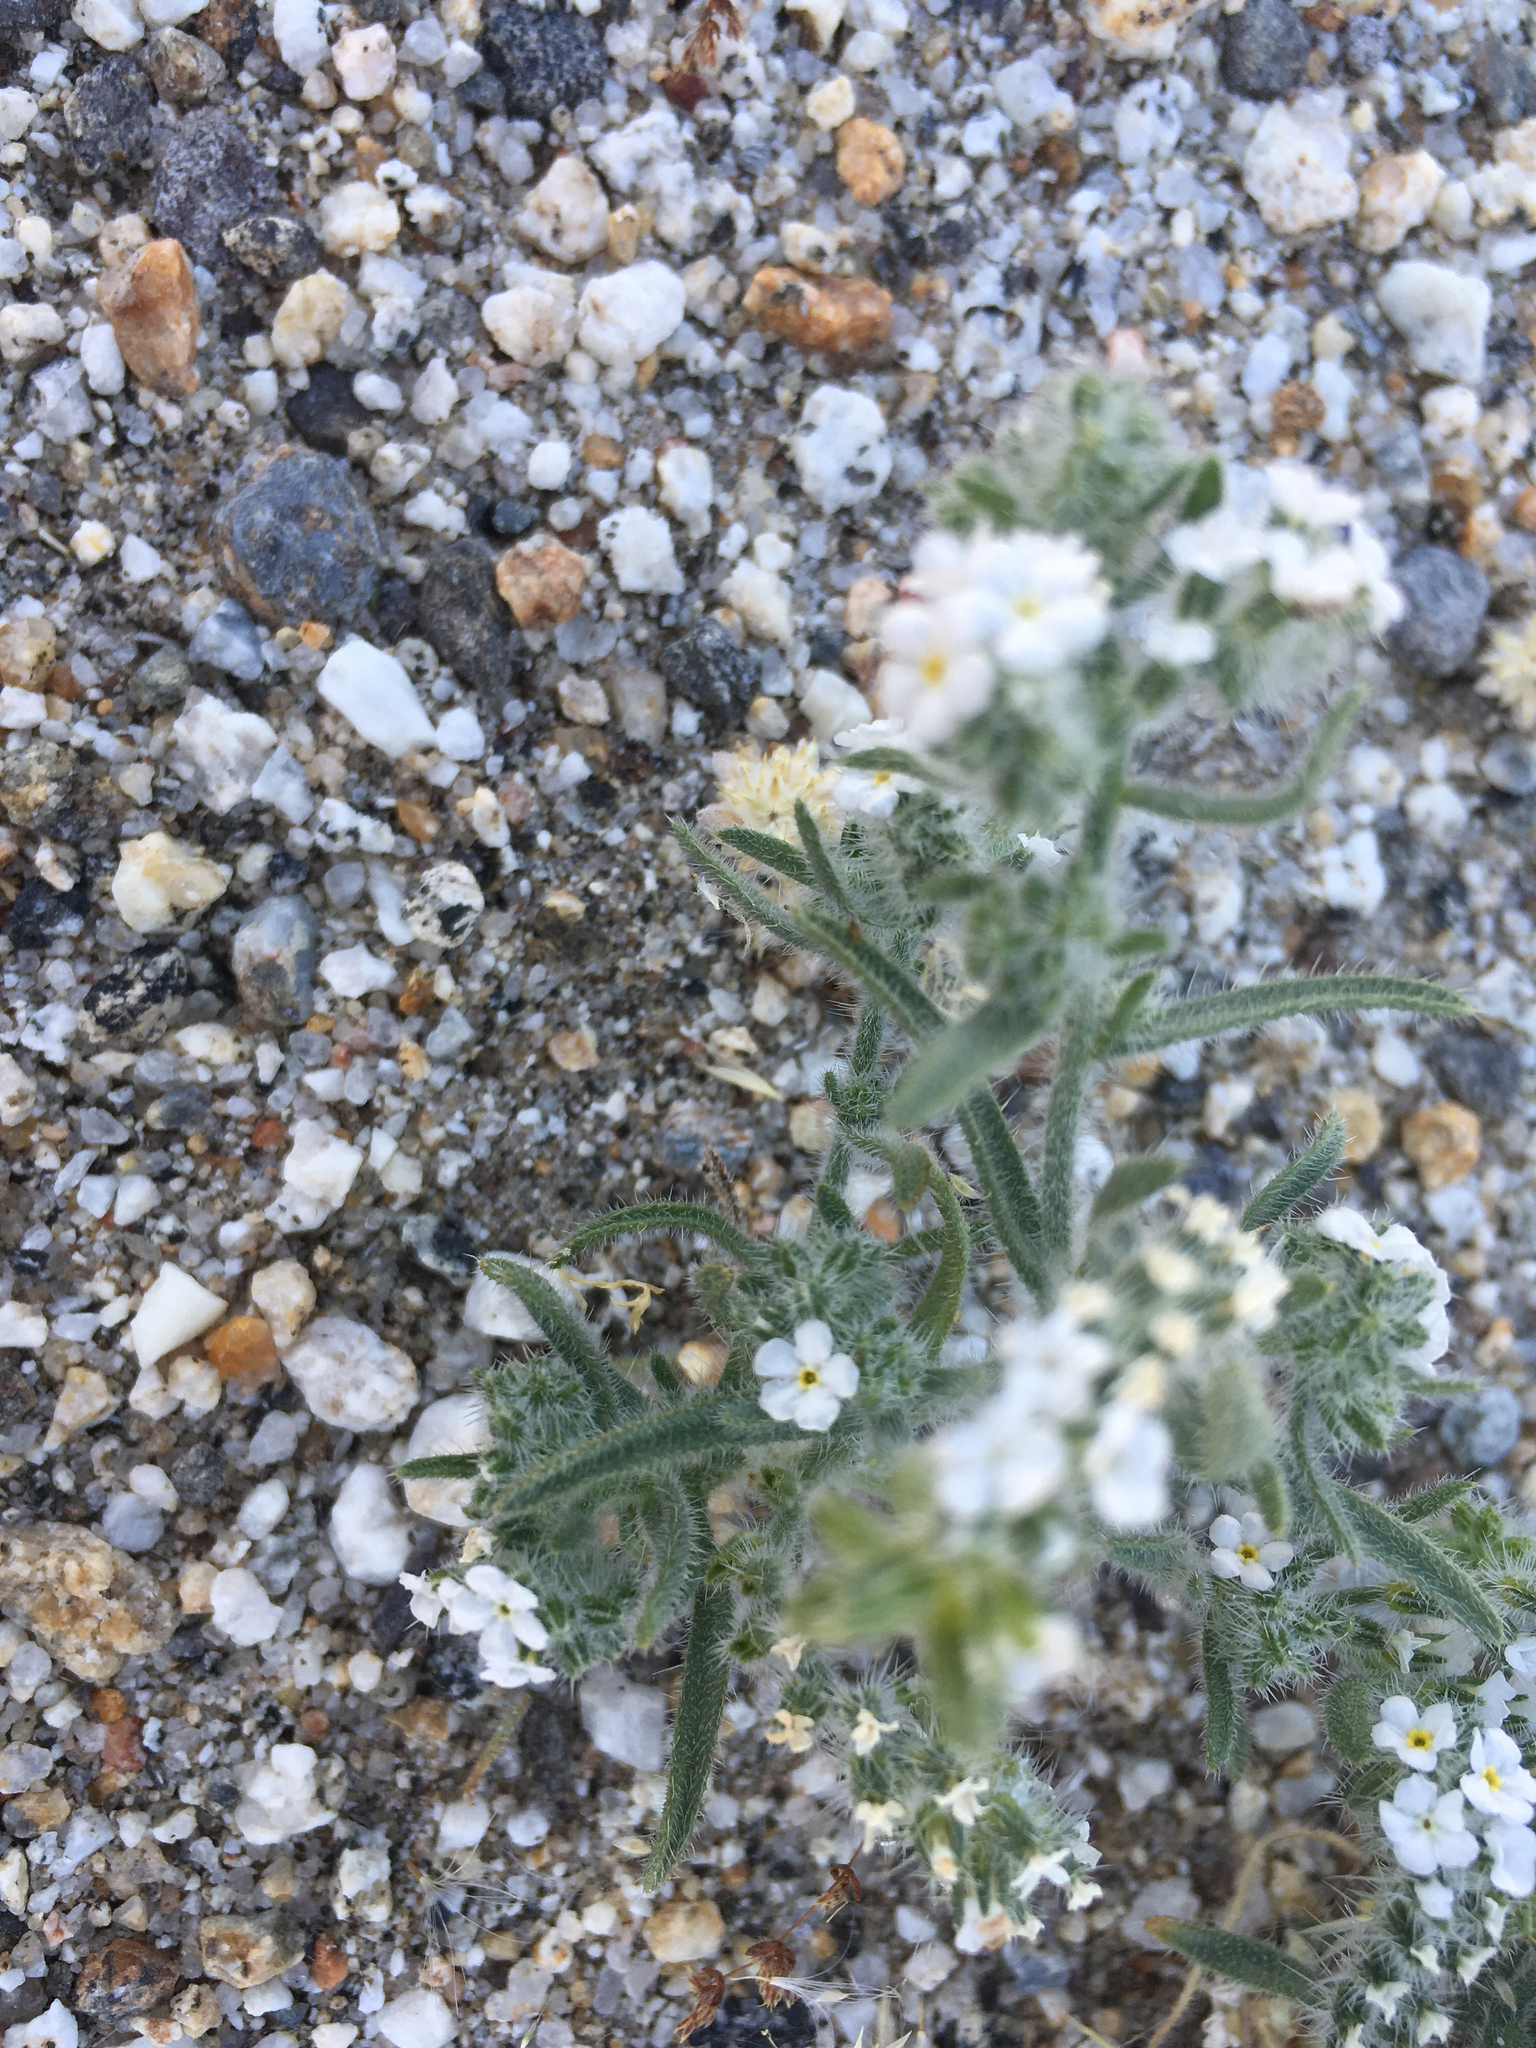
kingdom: Plantae
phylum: Tracheophyta
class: Magnoliopsida
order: Boraginales
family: Boraginaceae
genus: Johnstonella
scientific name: Johnstonella angustifolia
